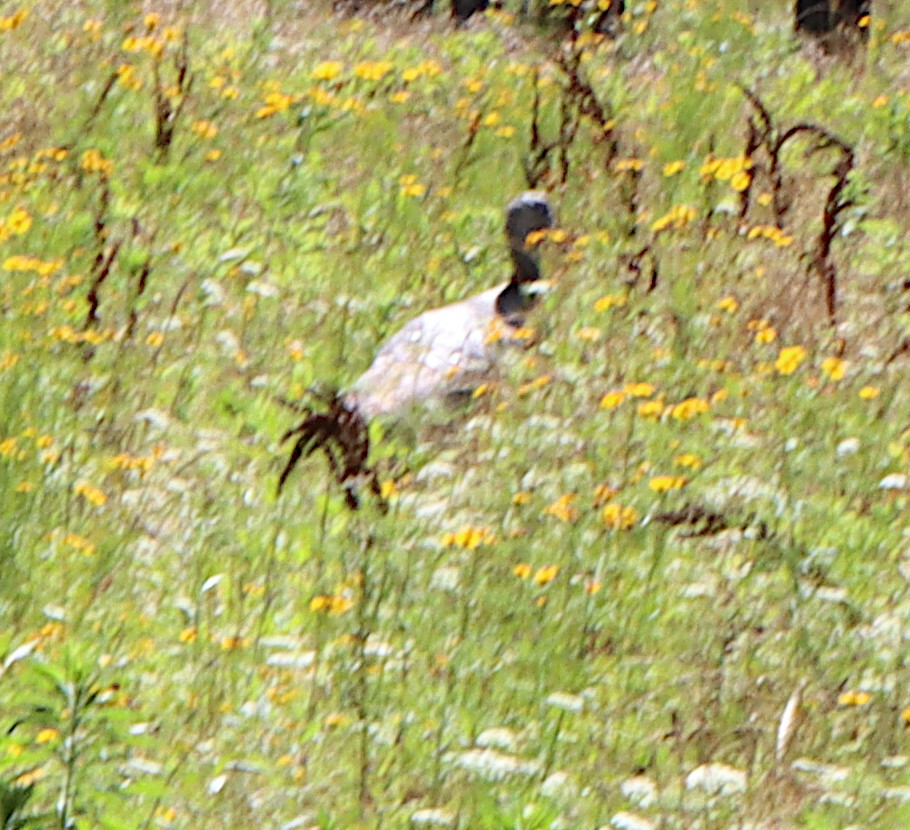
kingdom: Animalia
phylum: Chordata
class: Aves
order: Galliformes
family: Phasianidae
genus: Meleagris
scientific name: Meleagris gallopavo
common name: Wild turkey
